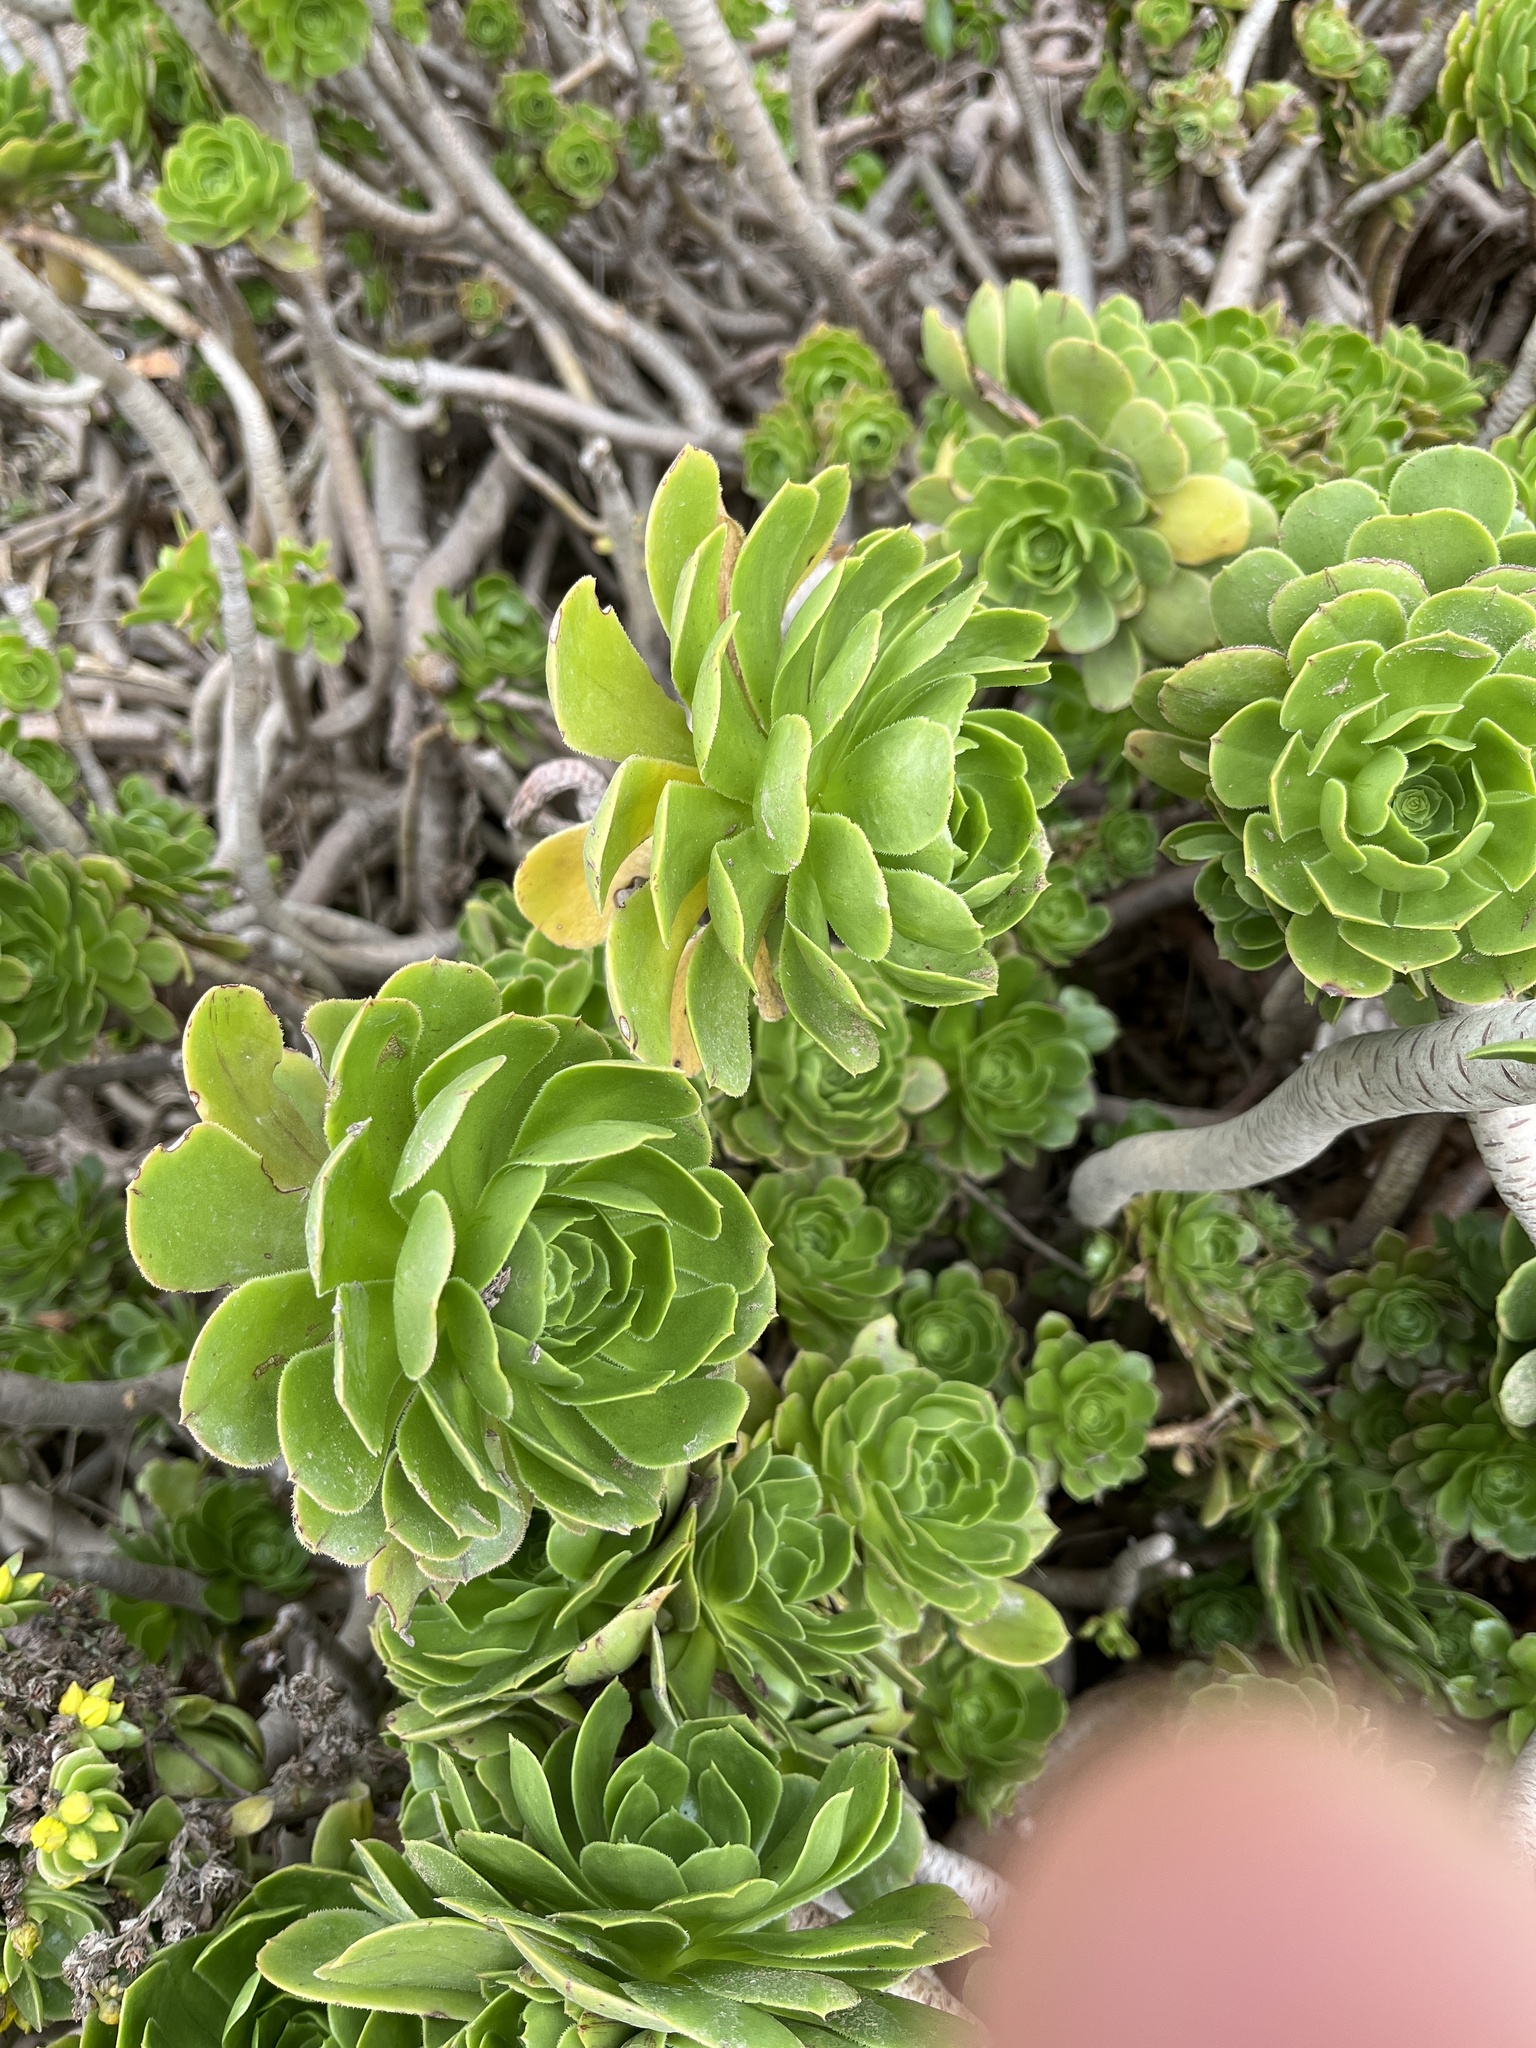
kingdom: Plantae
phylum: Tracheophyta
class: Magnoliopsida
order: Saxifragales
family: Crassulaceae
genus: Aeonium
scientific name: Aeonium arboreum
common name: Tree aeonium
